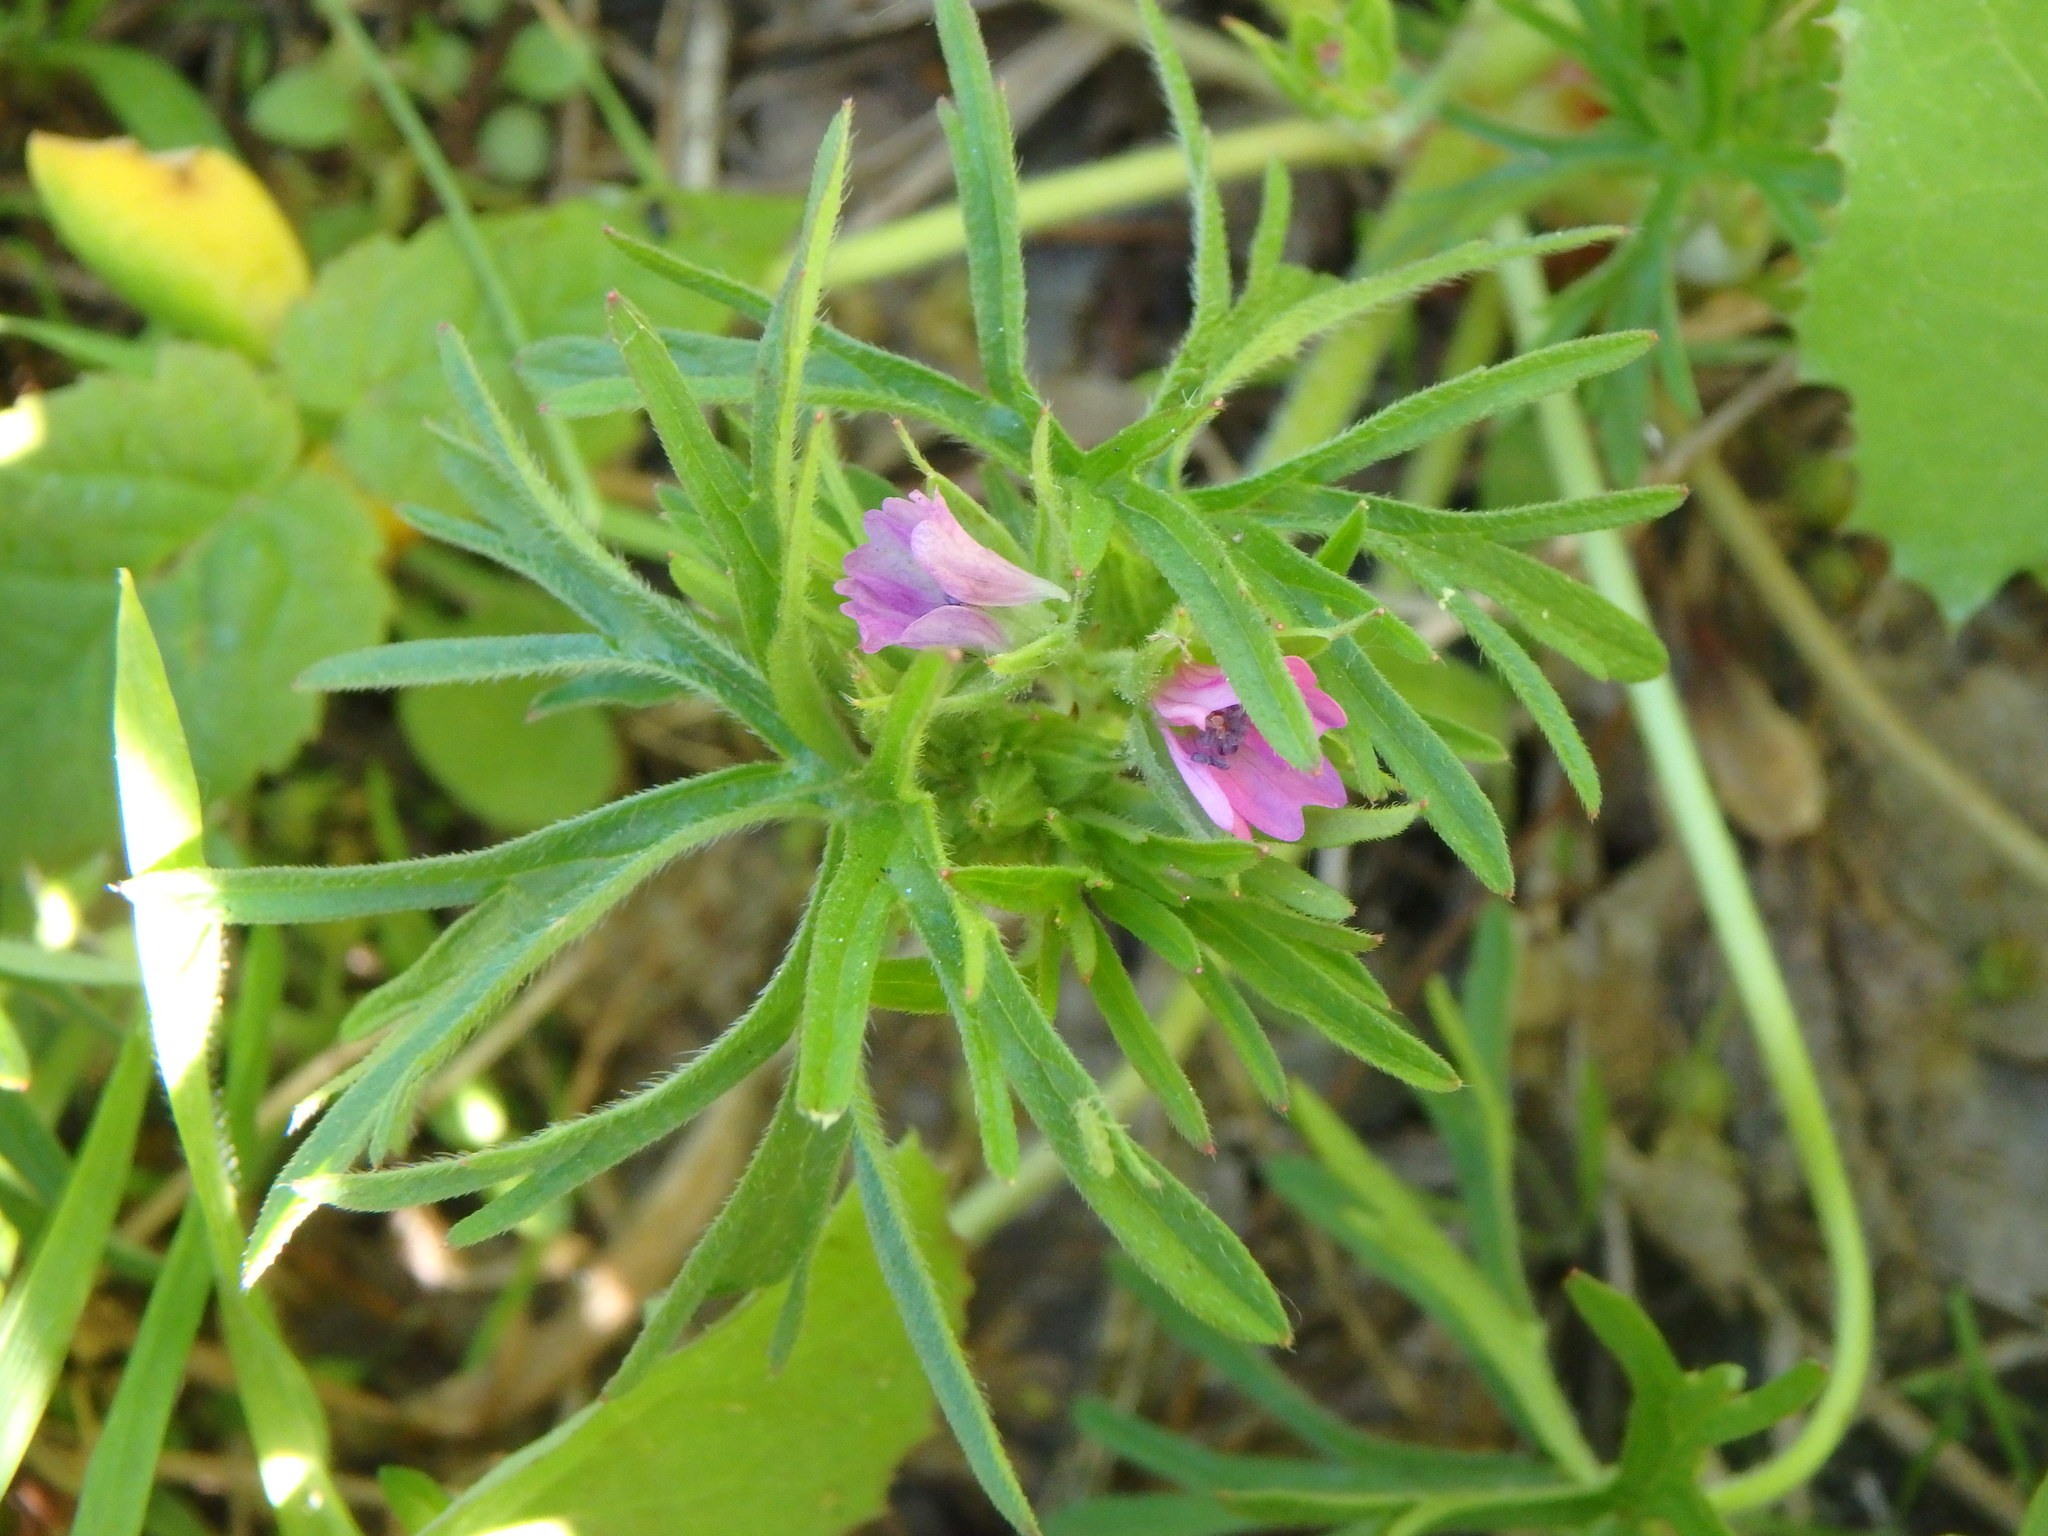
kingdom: Plantae
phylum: Tracheophyta
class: Magnoliopsida
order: Geraniales
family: Geraniaceae
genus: Geranium
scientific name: Geranium dissectum
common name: Cut-leaved crane's-bill
